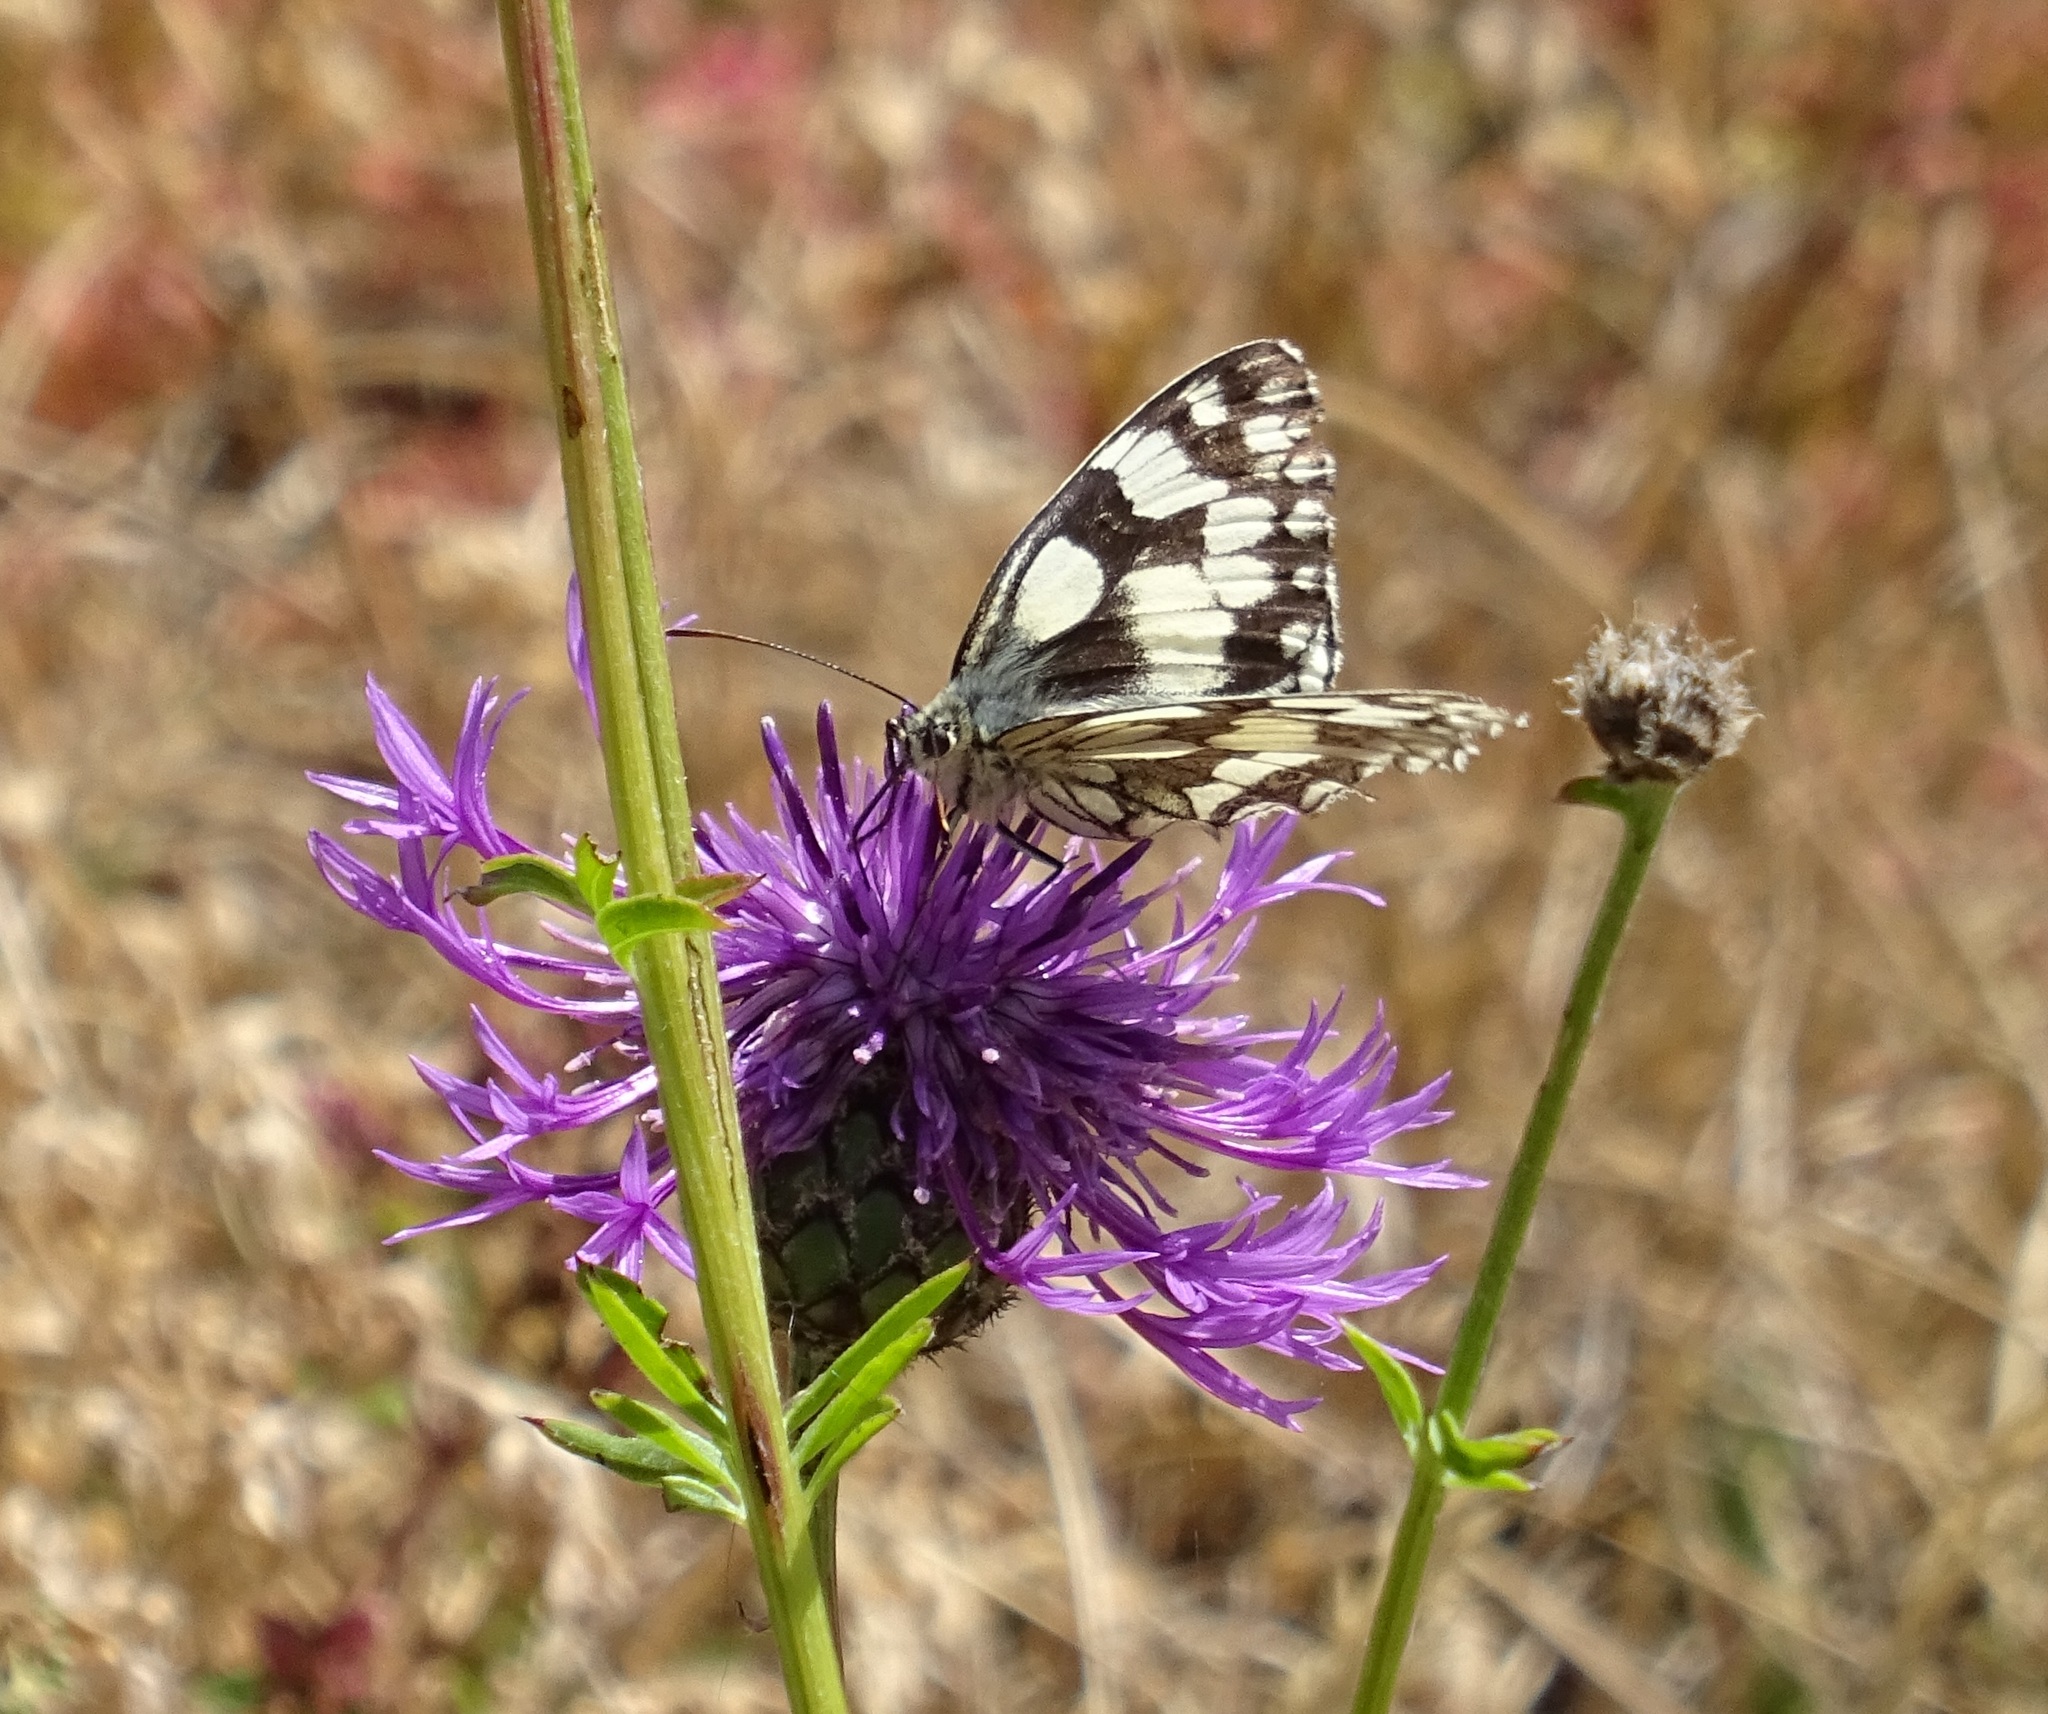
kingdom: Animalia
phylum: Arthropoda
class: Insecta
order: Lepidoptera
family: Nymphalidae
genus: Melanargia
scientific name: Melanargia galathea
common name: Marbled white
